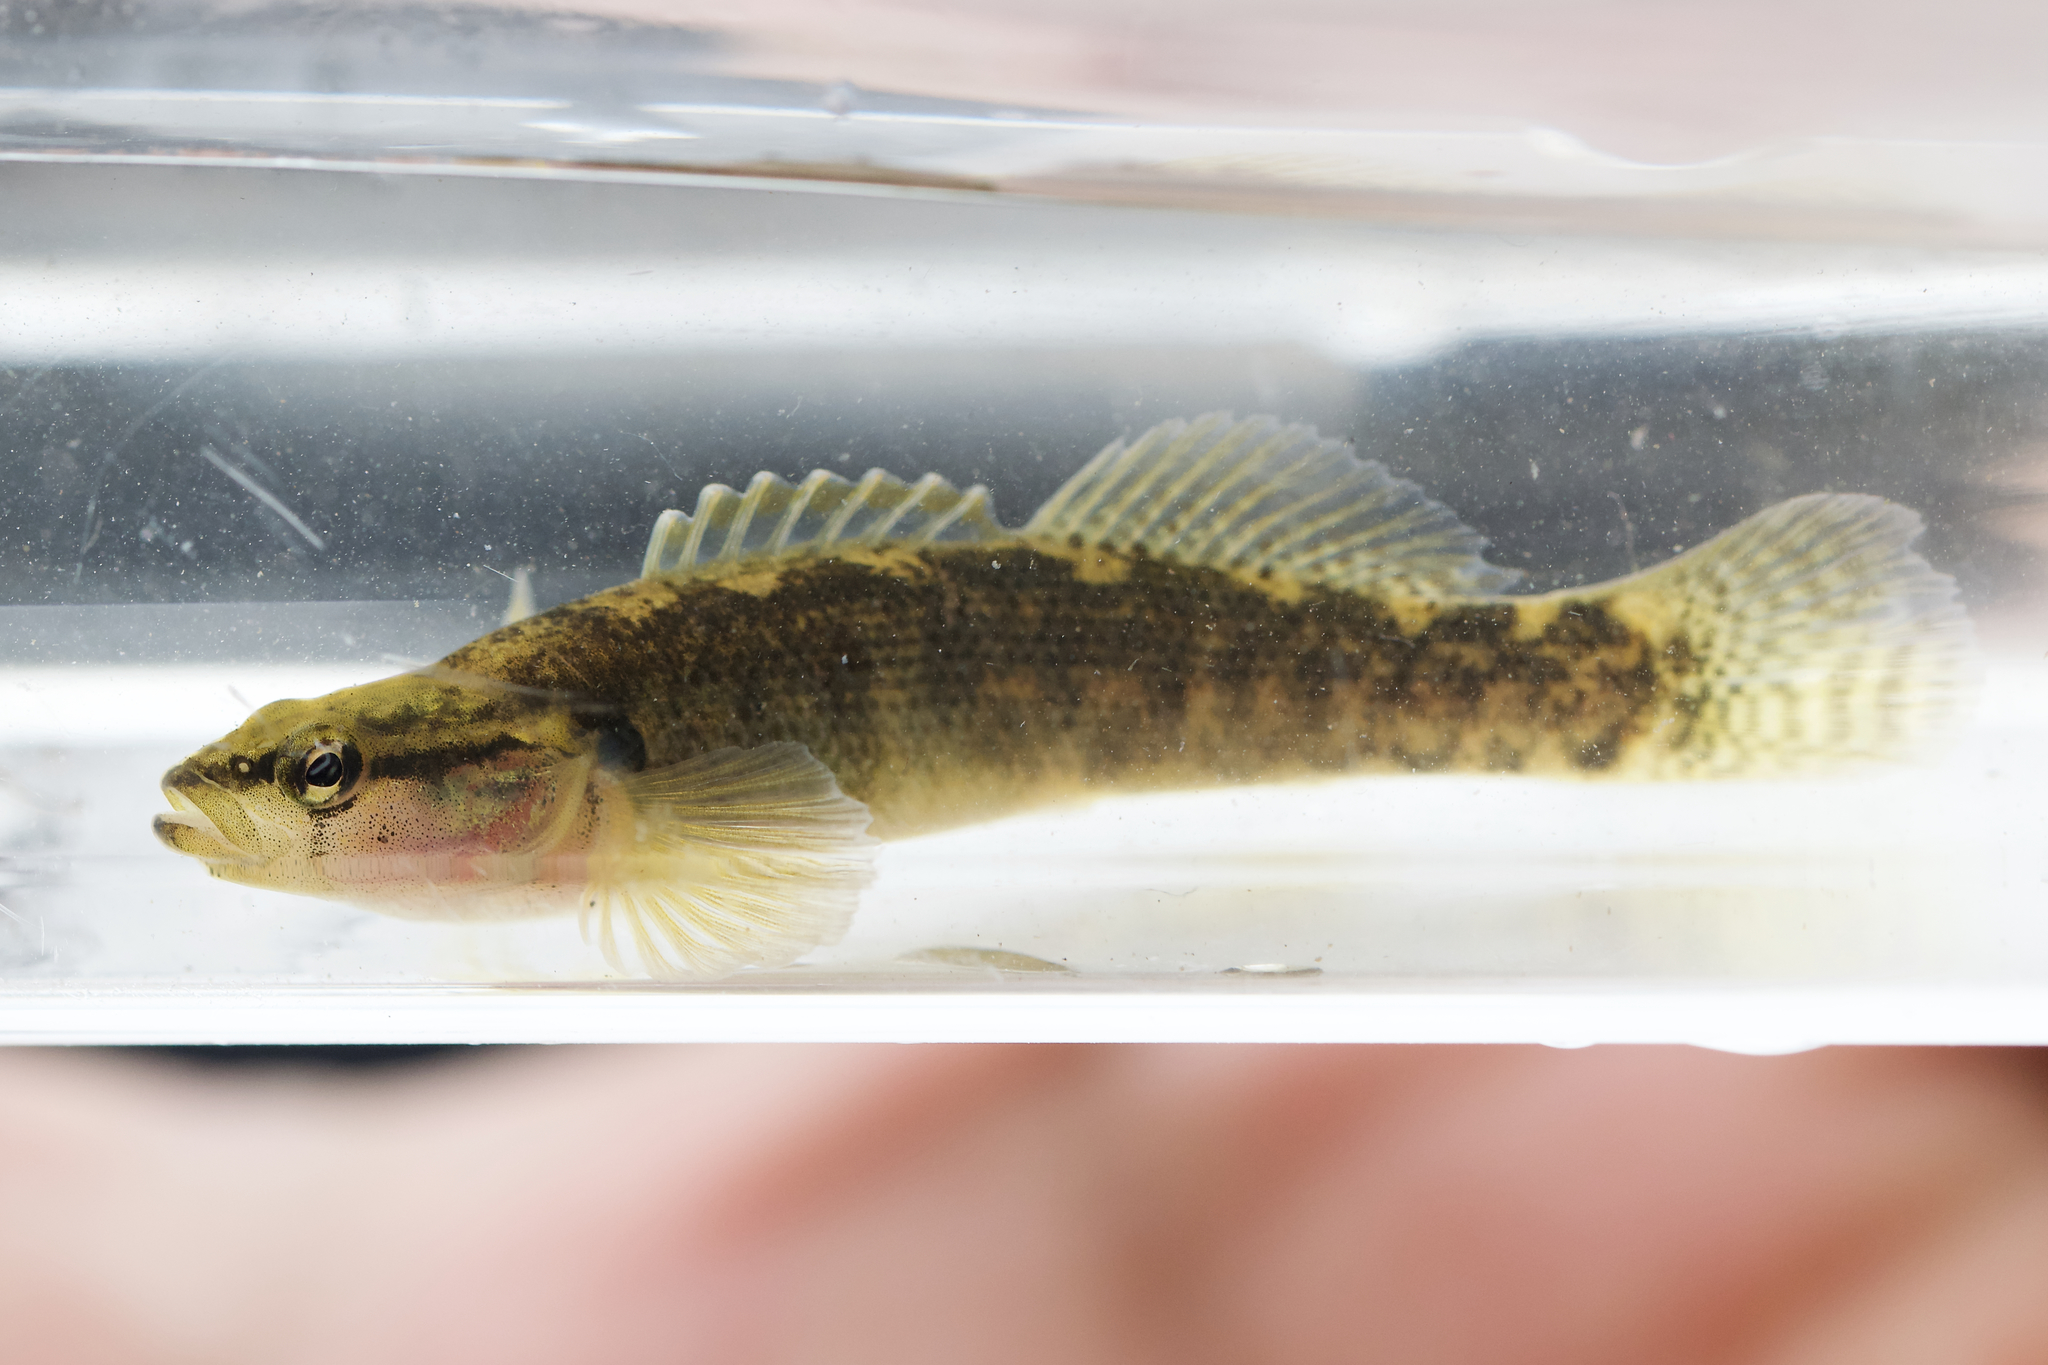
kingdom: Animalia
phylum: Chordata
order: Perciformes
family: Percidae
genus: Etheostoma
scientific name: Etheostoma flabellare
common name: Fantail darter
